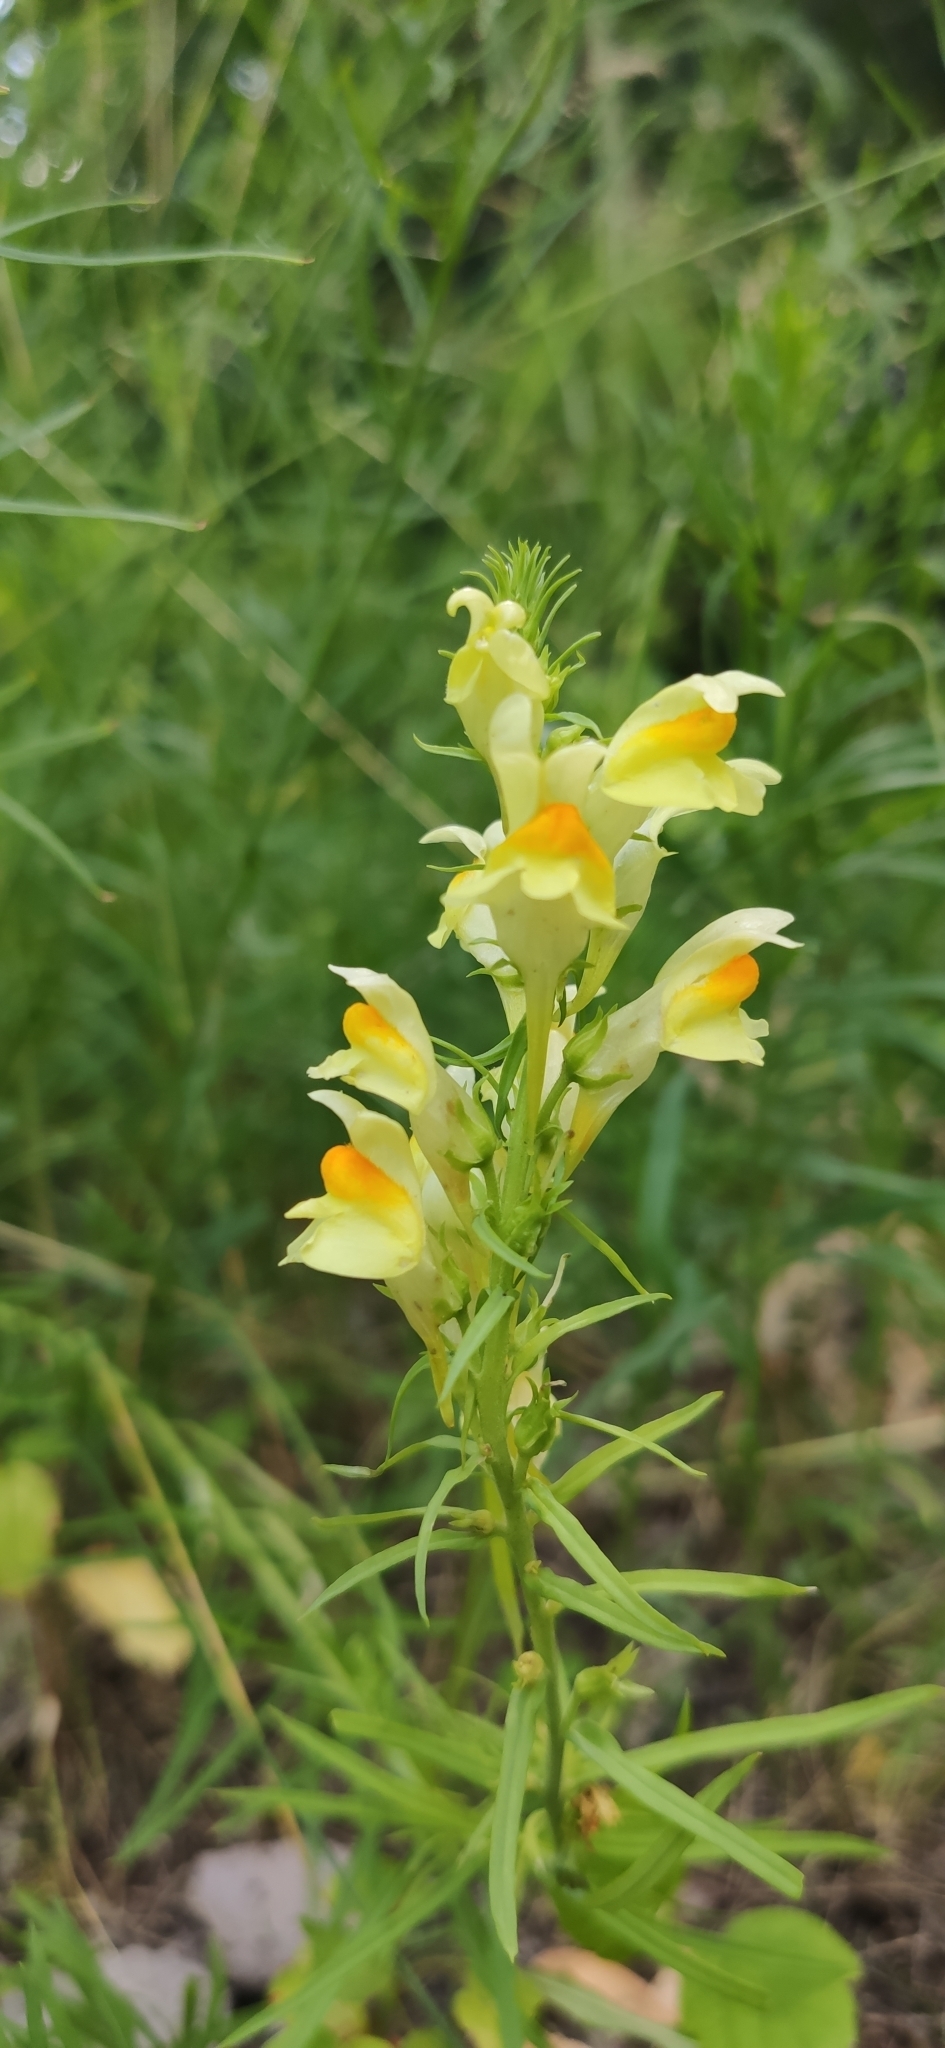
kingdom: Plantae
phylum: Tracheophyta
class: Magnoliopsida
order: Lamiales
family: Plantaginaceae
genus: Linaria
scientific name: Linaria vulgaris
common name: Butter and eggs
